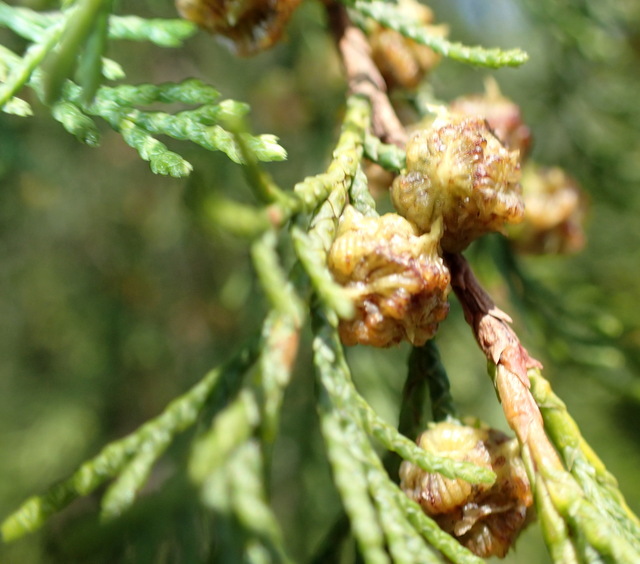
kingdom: Plantae
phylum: Tracheophyta
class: Pinopsida
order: Pinales
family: Cupressaceae
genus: Chamaecyparis
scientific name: Chamaecyparis thyoides
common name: Atlantic white cedar
